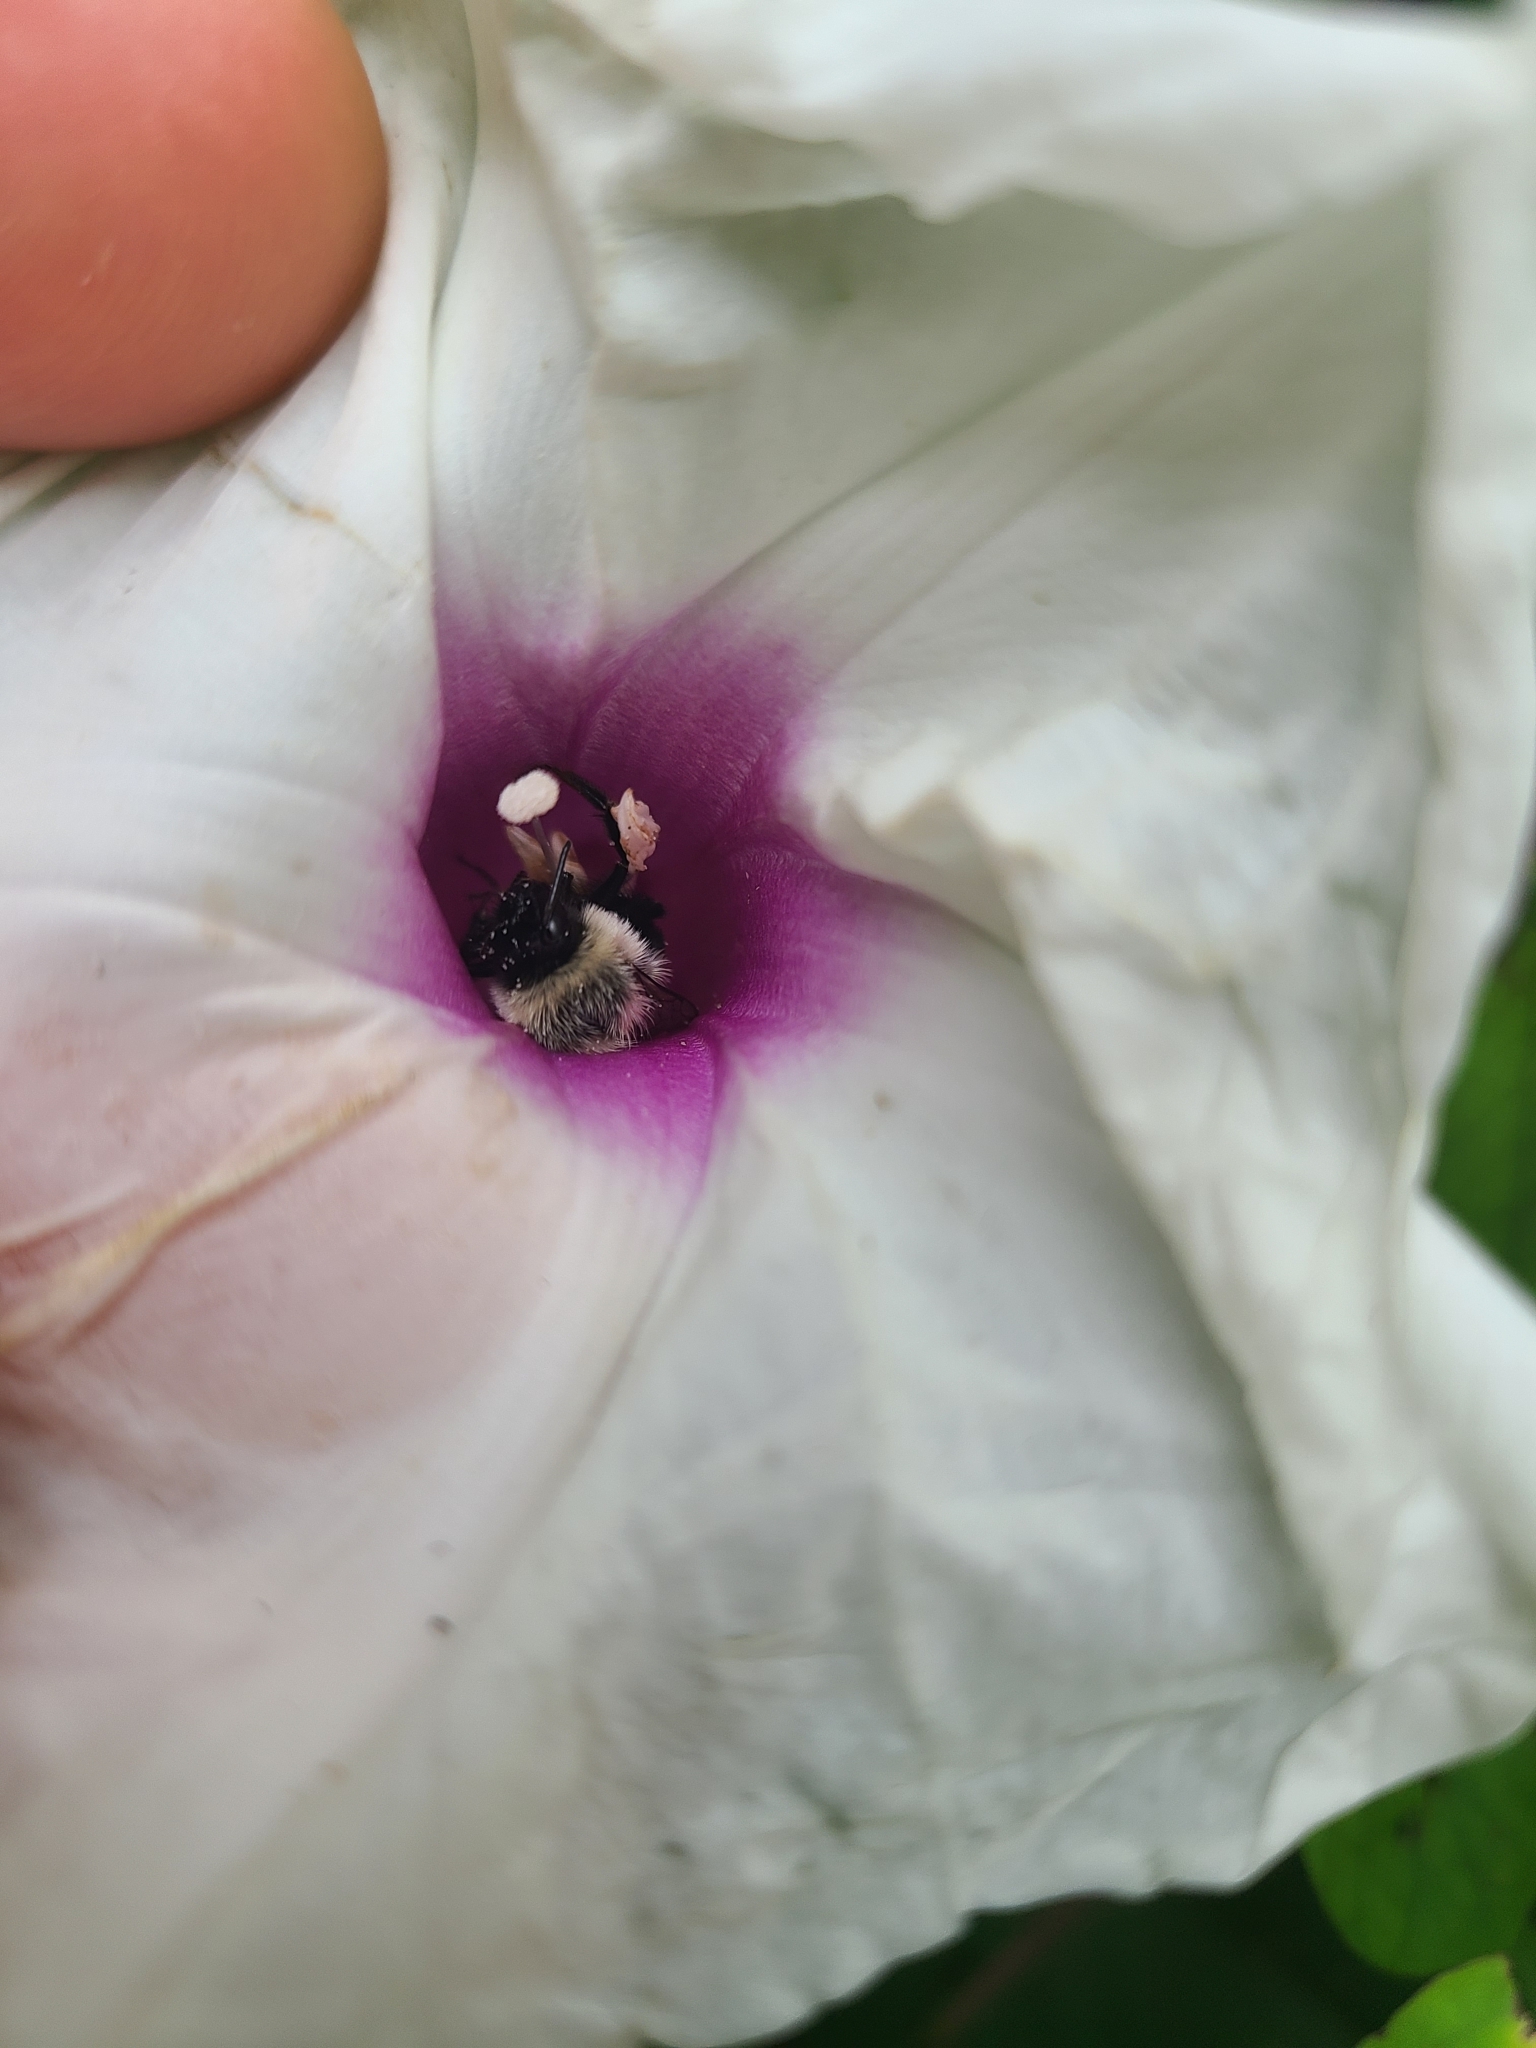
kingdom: Animalia
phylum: Arthropoda
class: Insecta
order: Hymenoptera
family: Apidae
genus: Bombus
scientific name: Bombus impatiens
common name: Common eastern bumble bee
